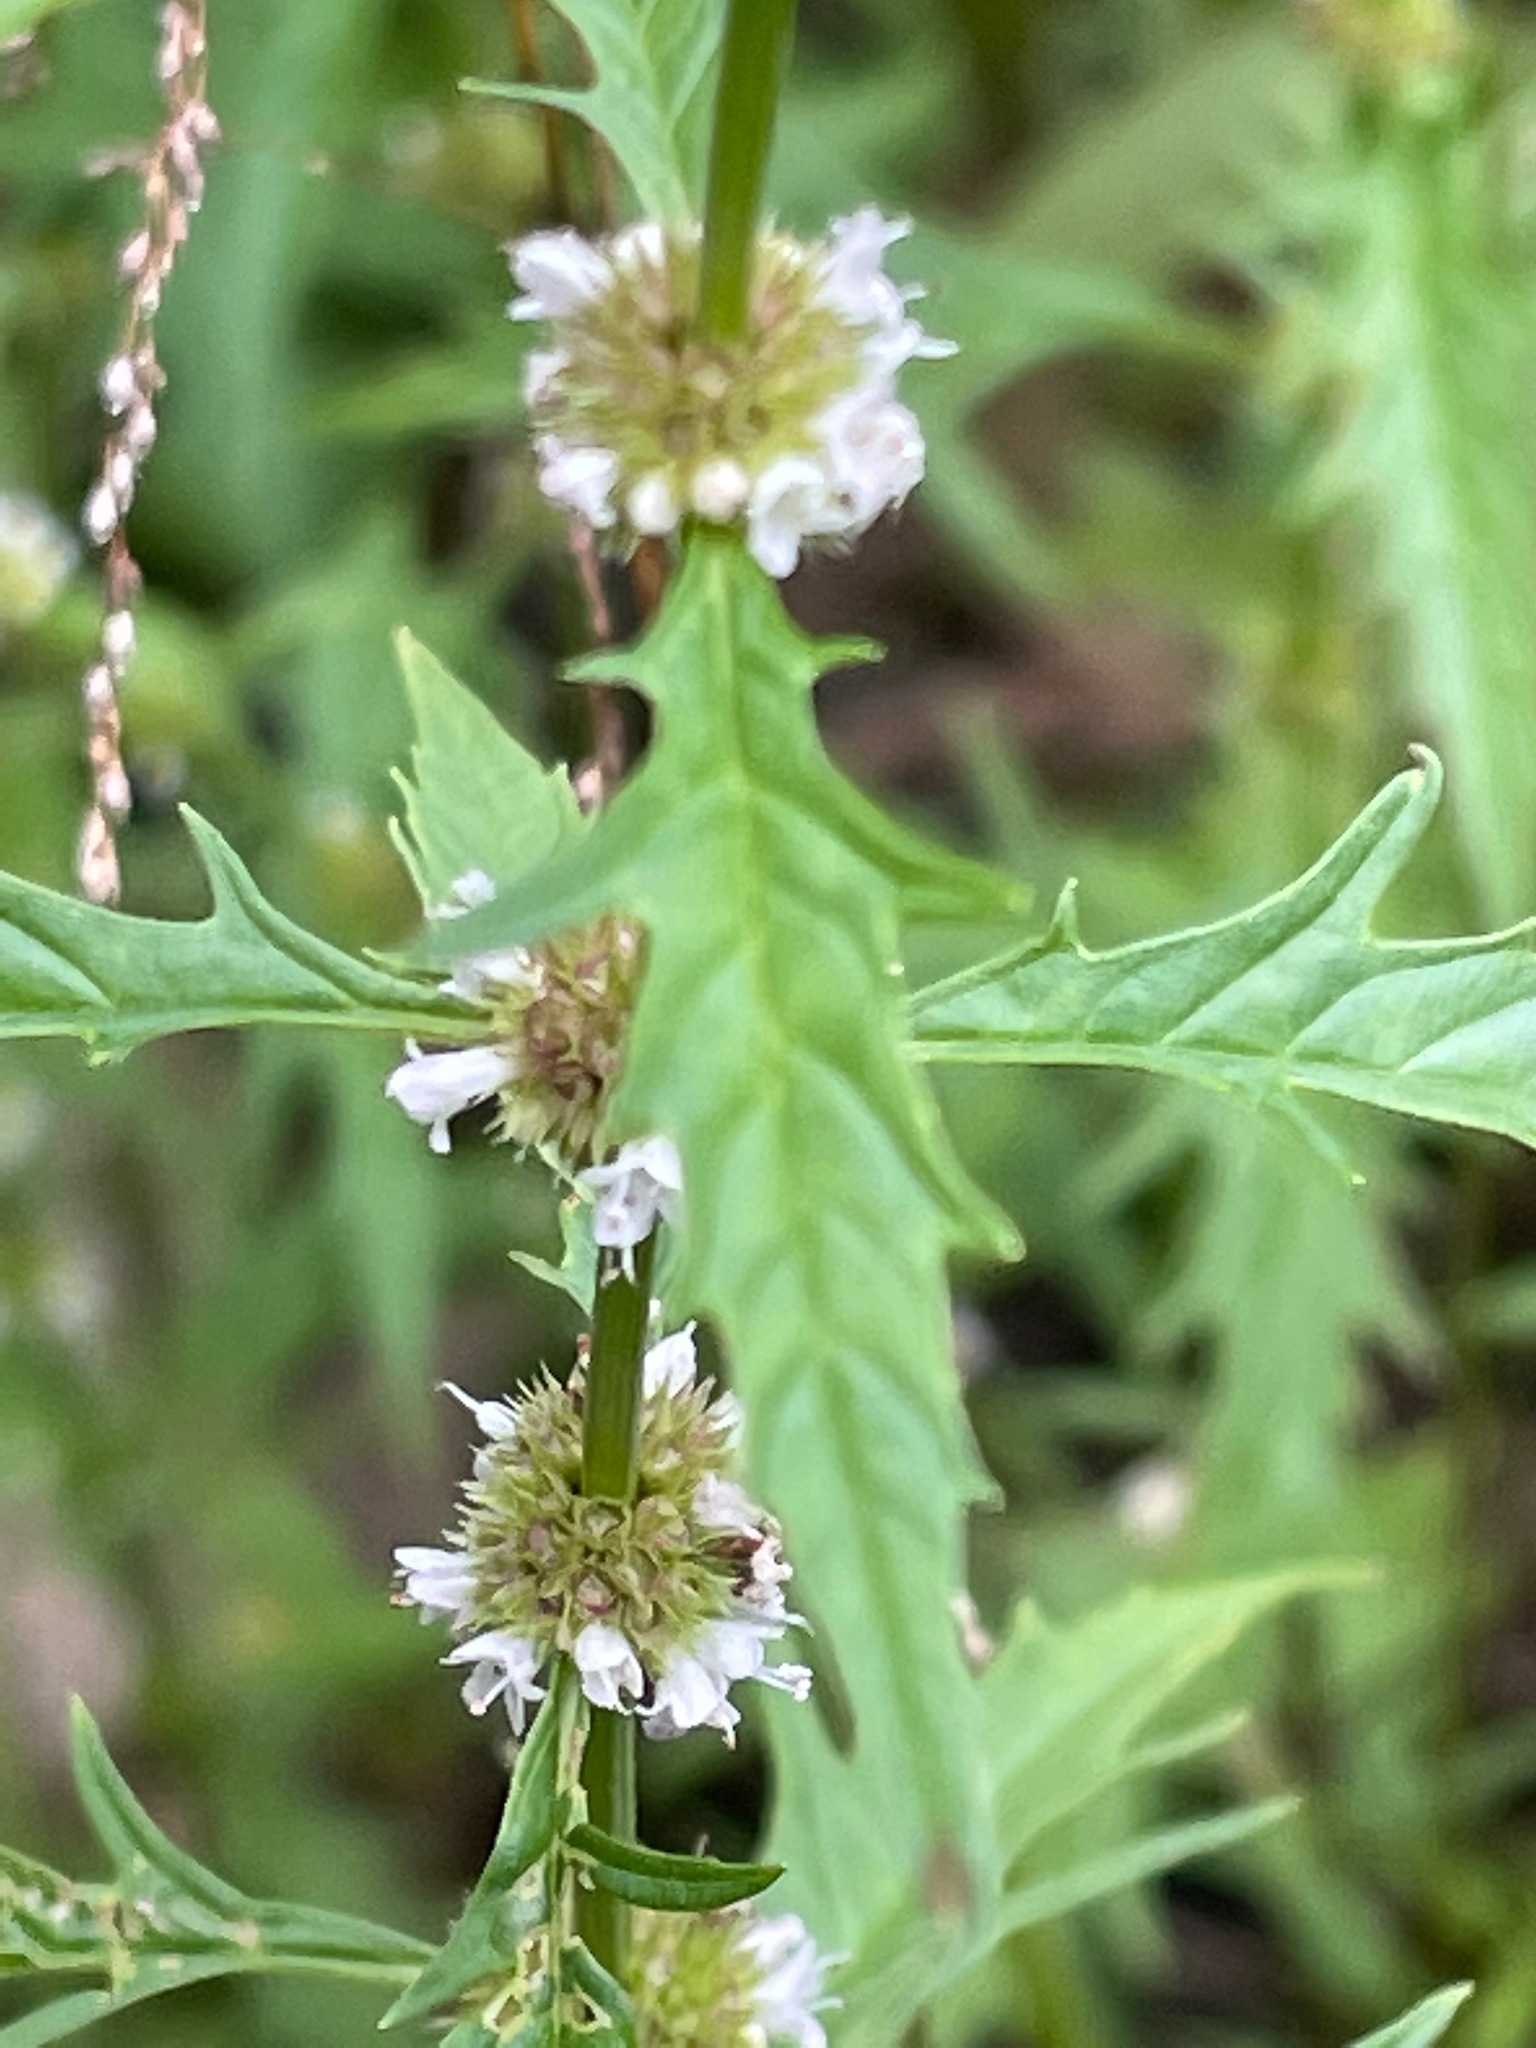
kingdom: Plantae
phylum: Tracheophyta
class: Magnoliopsida
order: Lamiales
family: Lamiaceae
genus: Lycopus
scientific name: Lycopus americanus
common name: American bugleweed
